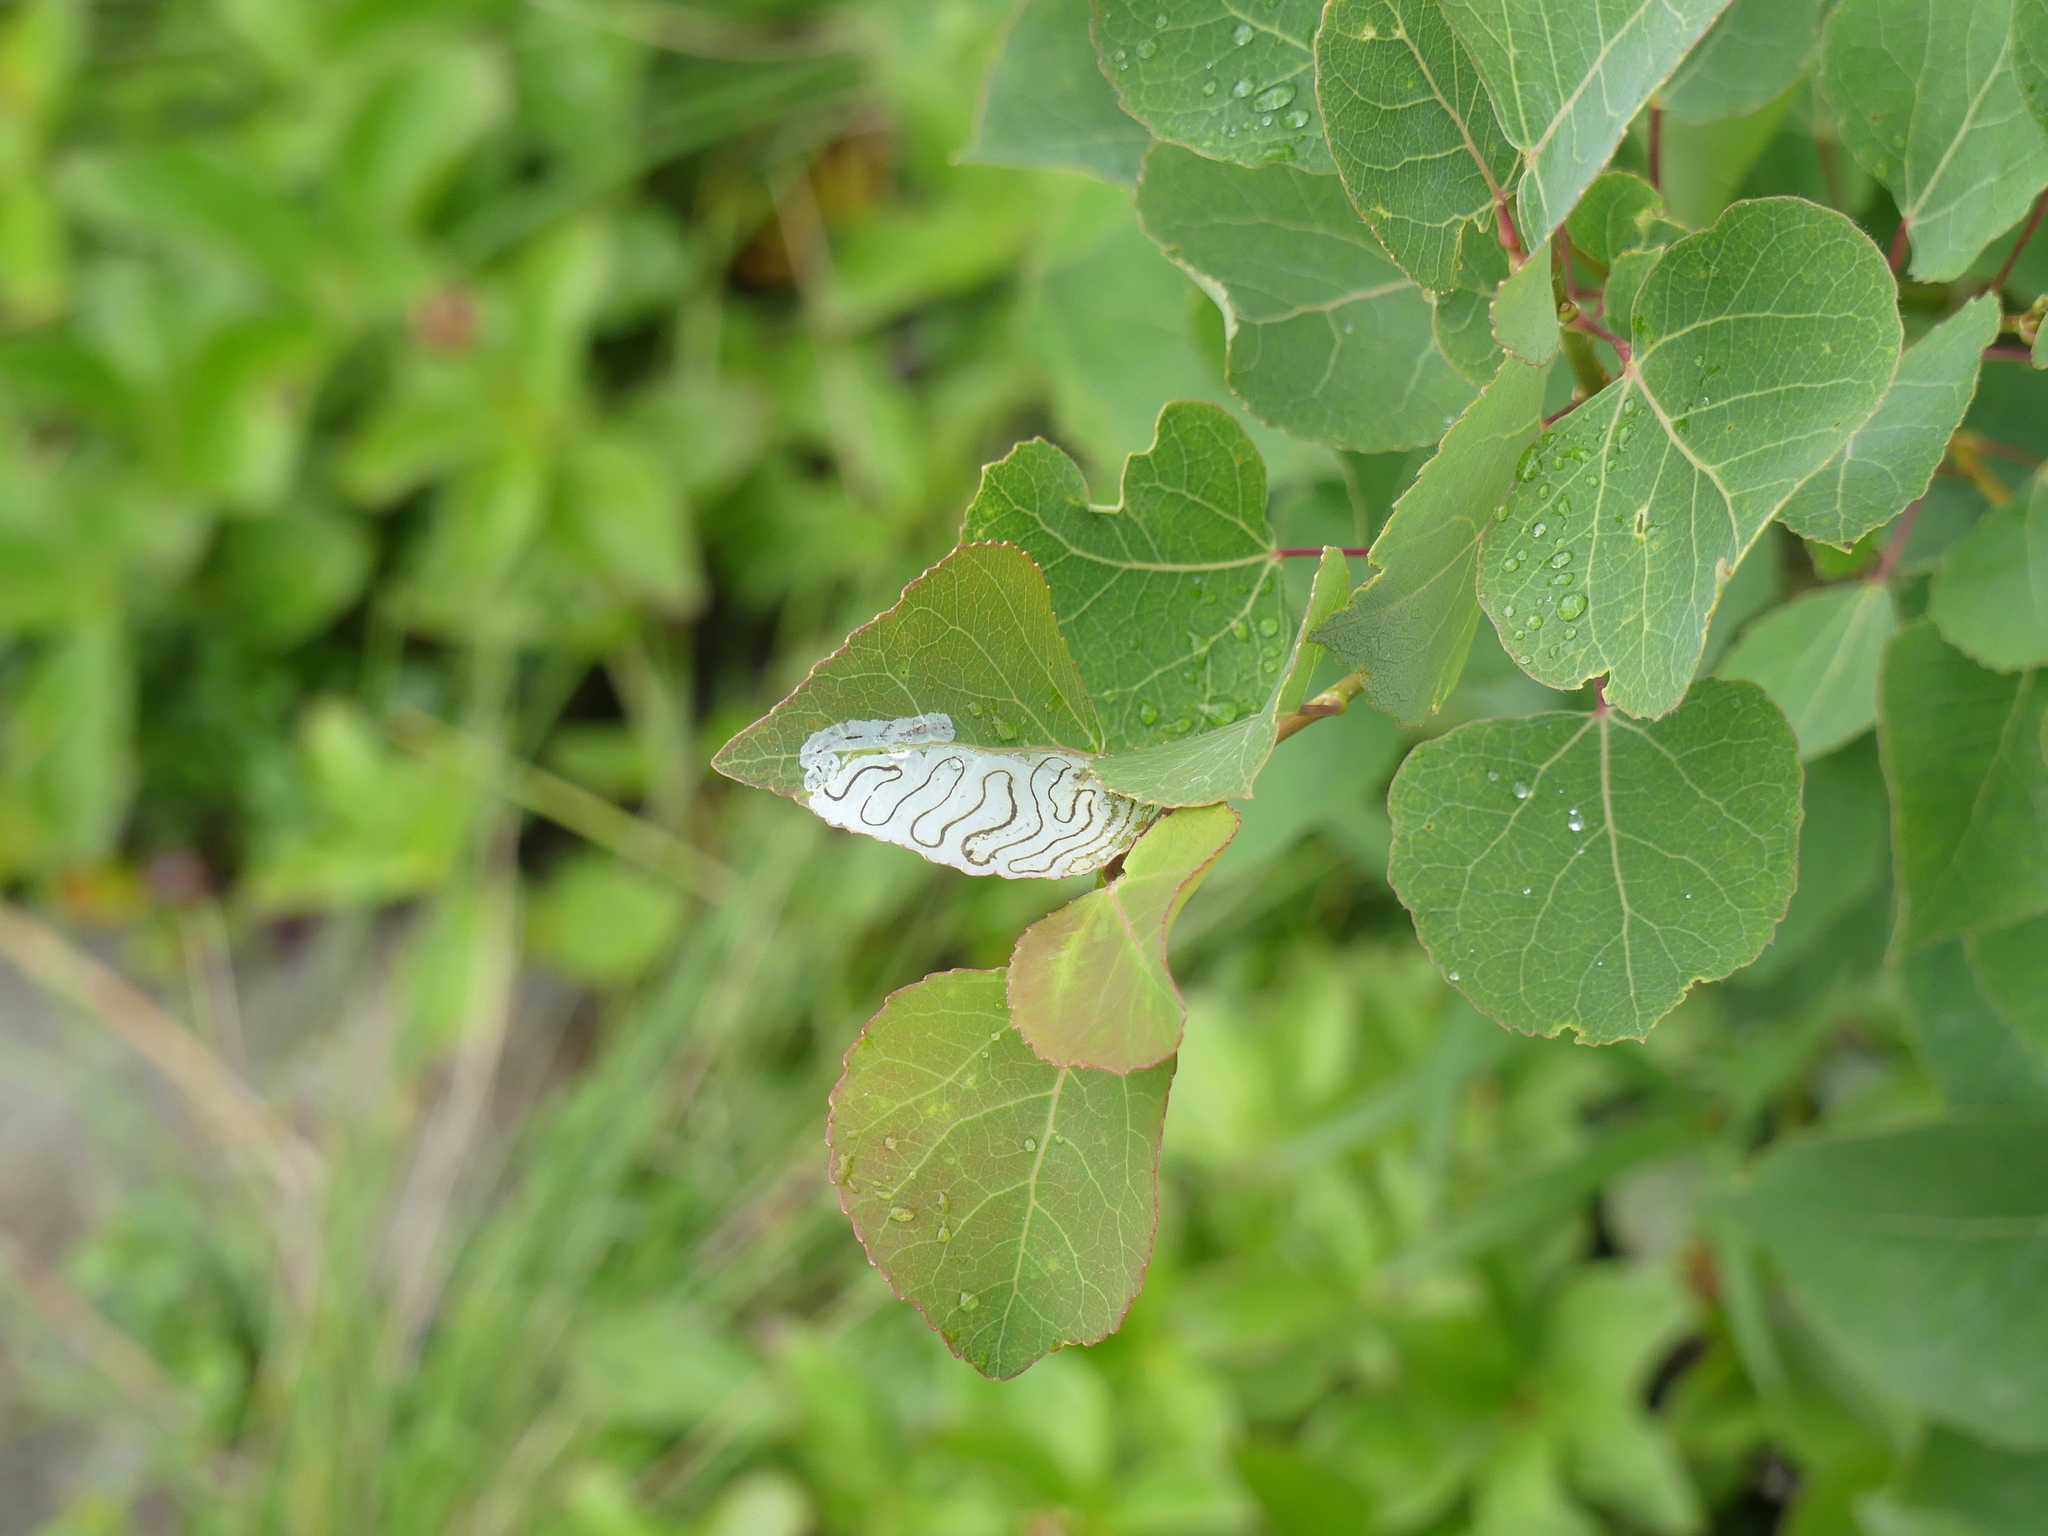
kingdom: Animalia
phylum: Arthropoda
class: Insecta
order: Lepidoptera
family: Gracillariidae
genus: Phyllocnistis
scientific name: Phyllocnistis populiella
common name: Aspen serpentine leafminer moth
